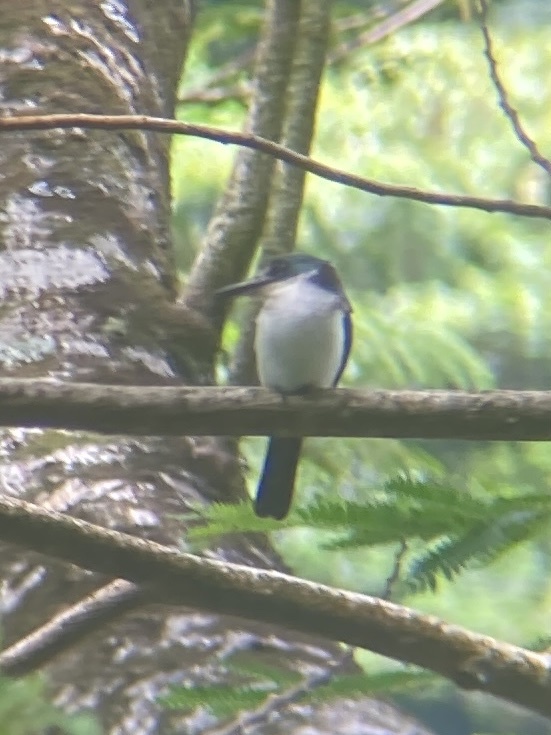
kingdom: Animalia
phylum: Chordata
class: Aves
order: Coraciiformes
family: Alcedinidae
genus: Todiramphus
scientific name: Todiramphus veneratus
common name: Society kingfisher
